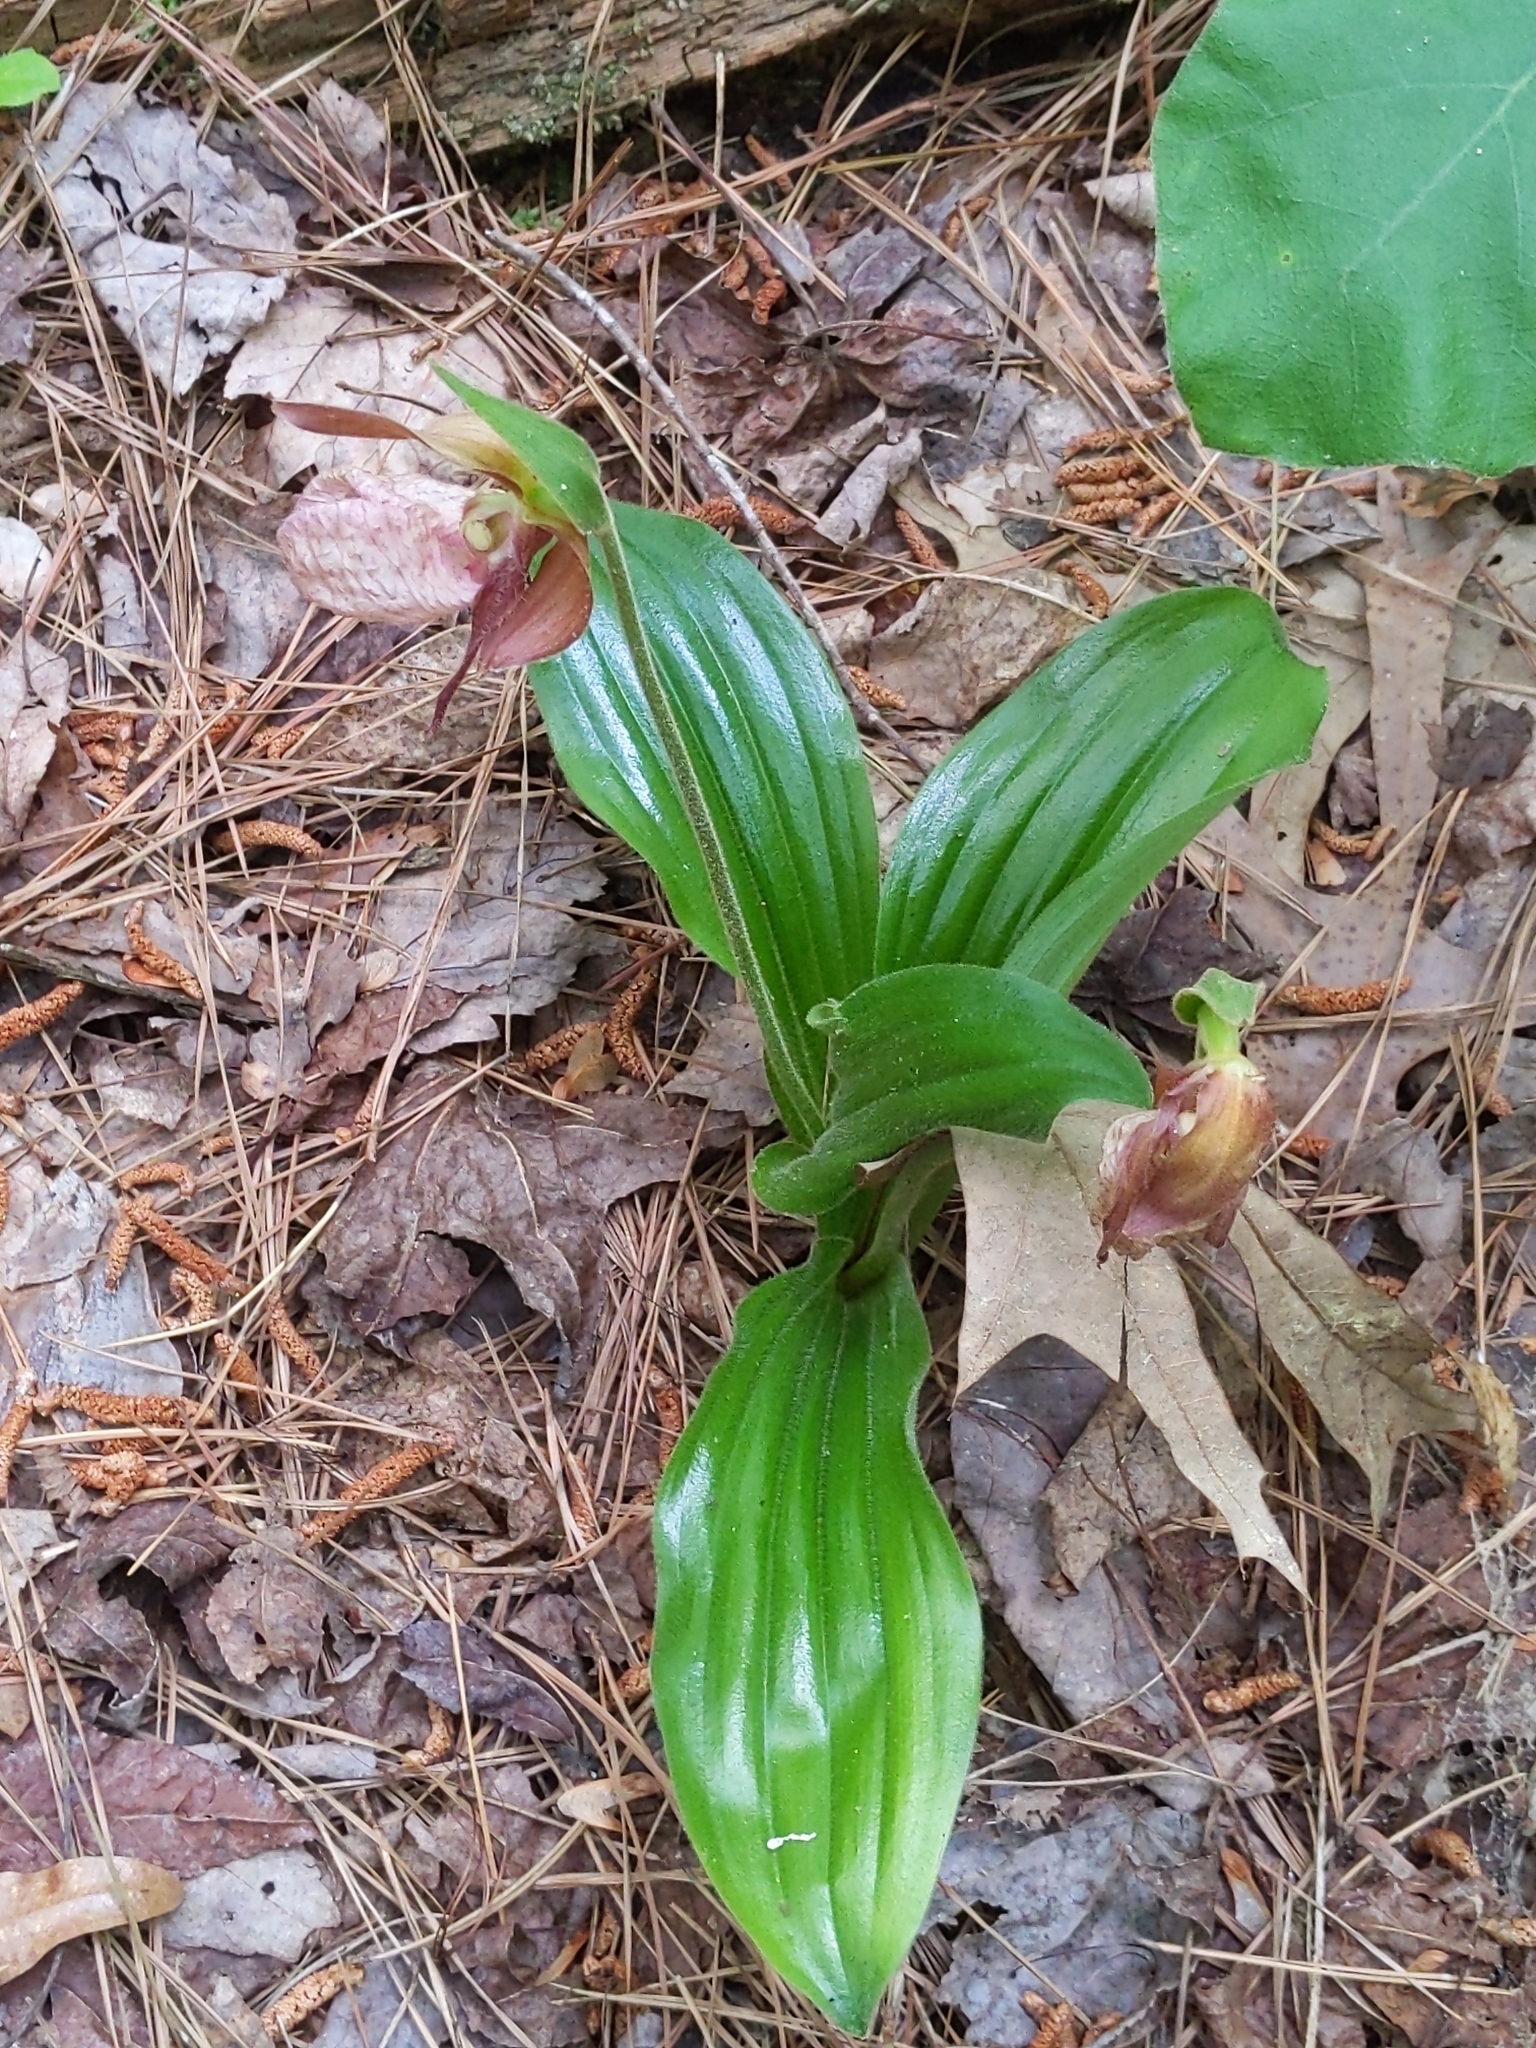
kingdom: Plantae
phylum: Tracheophyta
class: Liliopsida
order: Asparagales
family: Orchidaceae
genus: Cypripedium
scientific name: Cypripedium acaule
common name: Pink lady's-slipper
